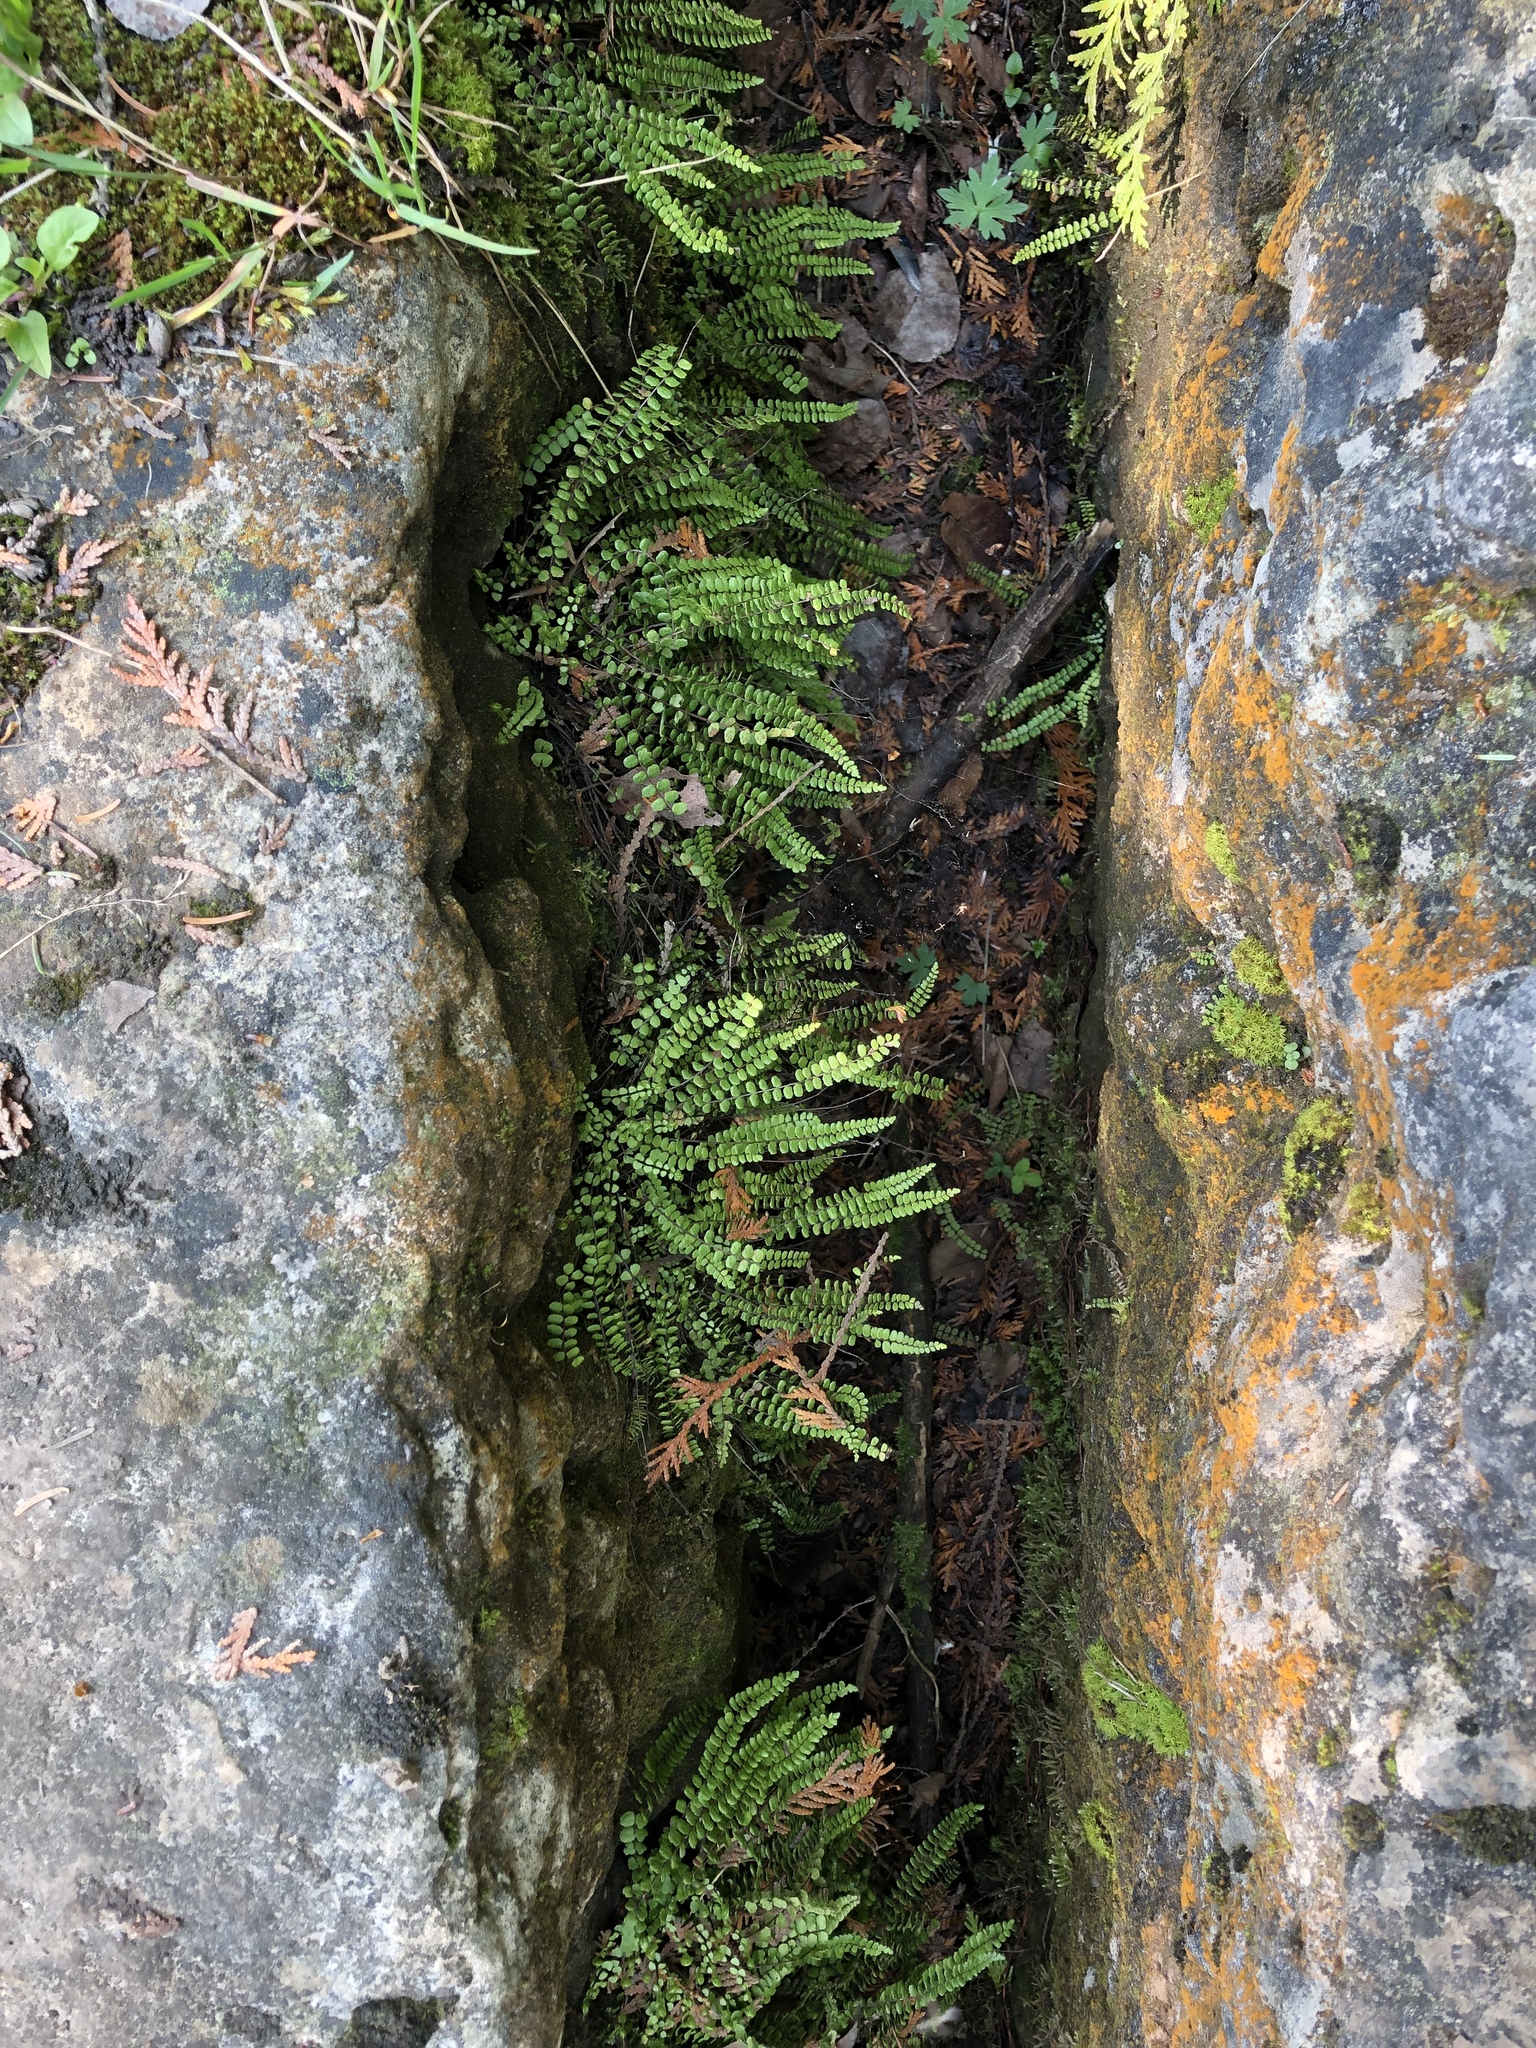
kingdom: Plantae
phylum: Tracheophyta
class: Polypodiopsida
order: Polypodiales
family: Aspleniaceae
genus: Asplenium
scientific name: Asplenium trichomanes
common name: Maidenhair spleenwort
